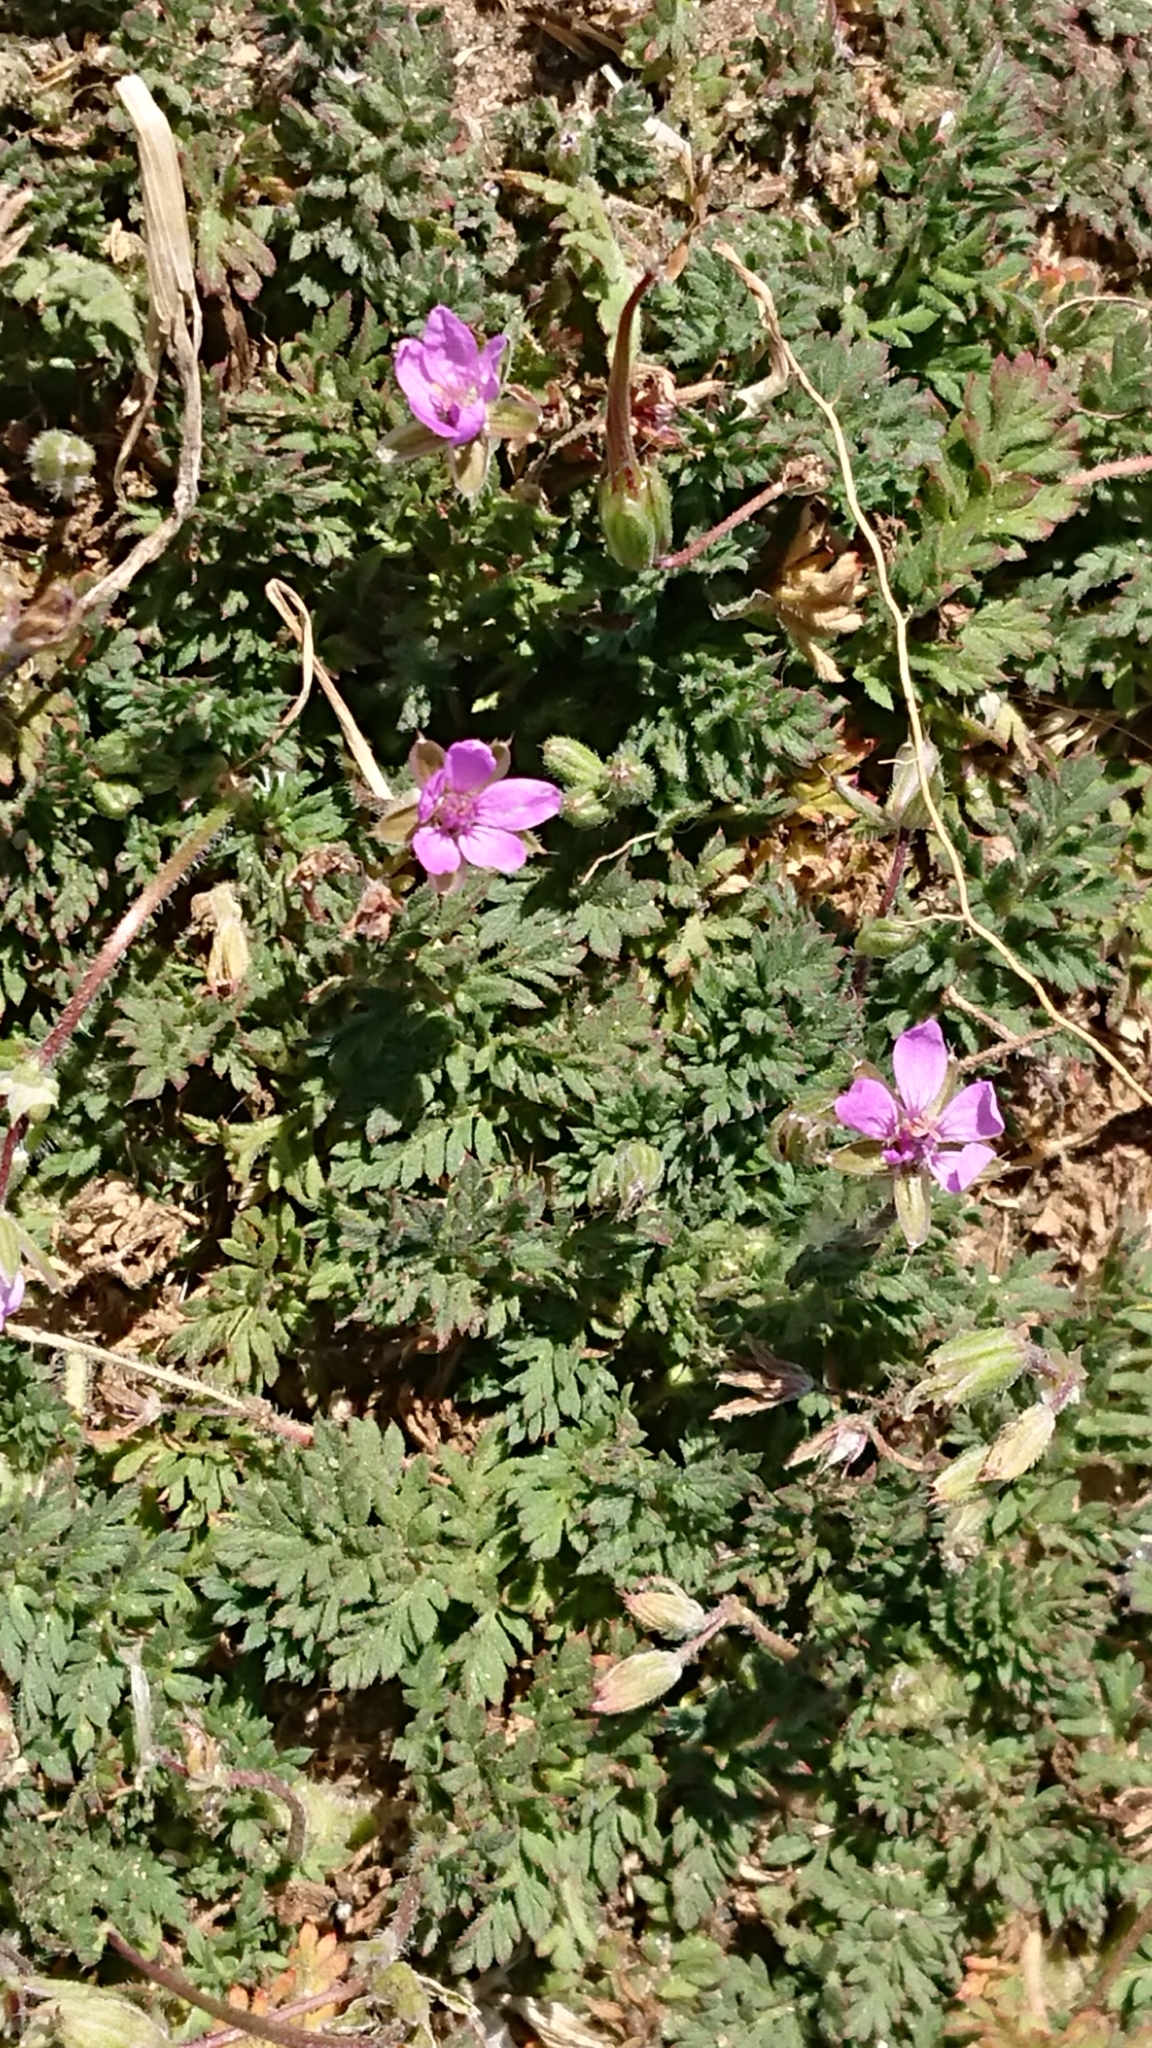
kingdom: Plantae
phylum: Tracheophyta
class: Magnoliopsida
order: Geraniales
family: Geraniaceae
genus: Erodium
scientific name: Erodium cicutarium
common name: Common stork's-bill
